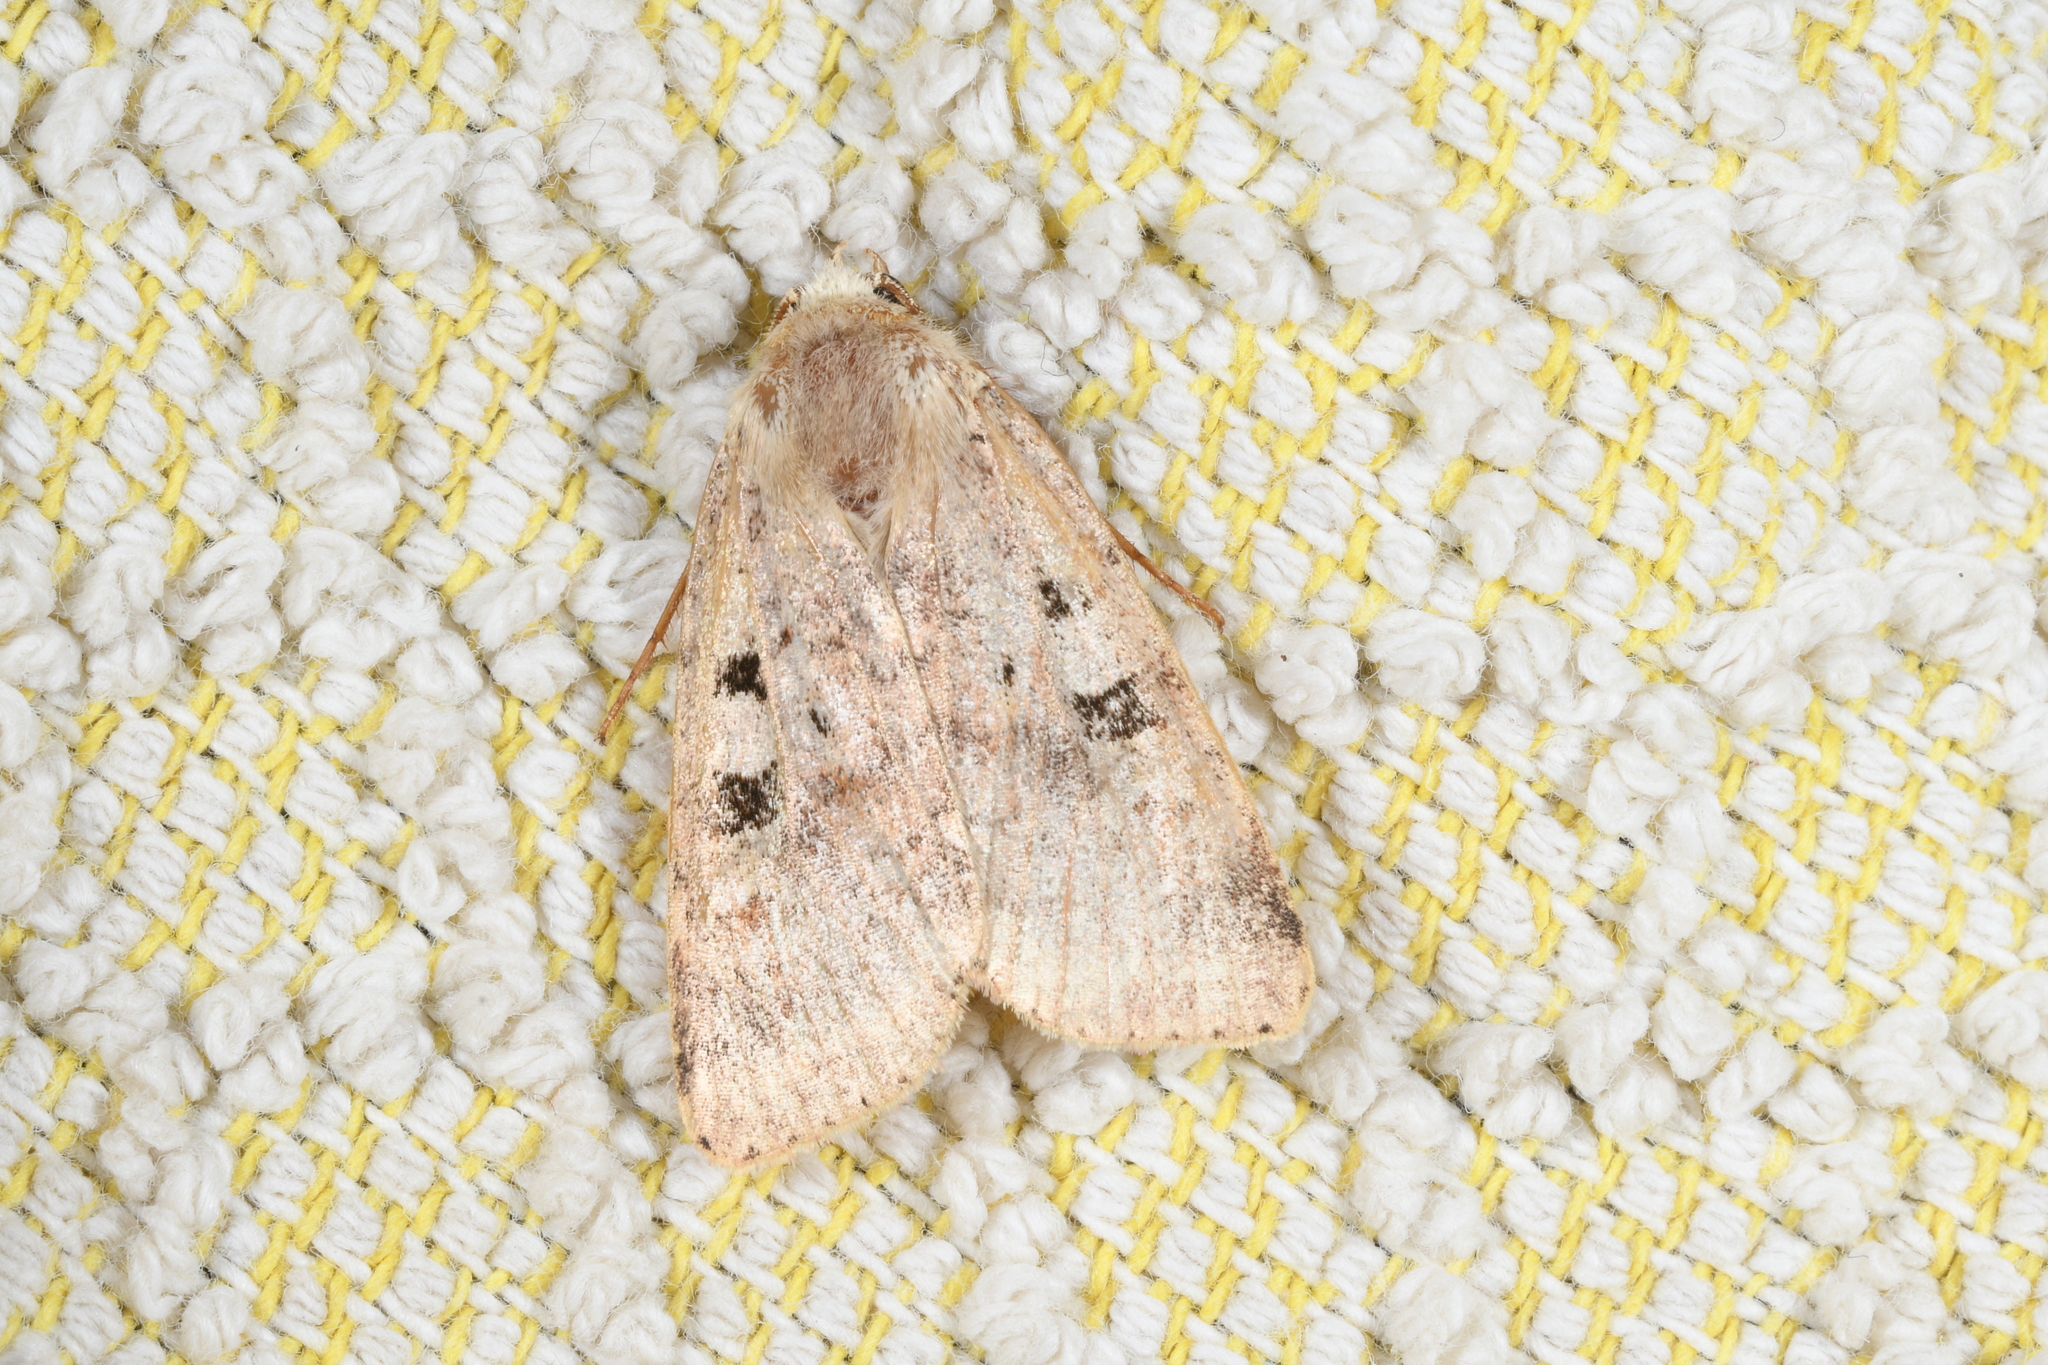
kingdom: Animalia
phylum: Arthropoda
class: Insecta
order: Lepidoptera
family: Noctuidae
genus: Diarsia
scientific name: Diarsia mendica
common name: Ingrailed clay
